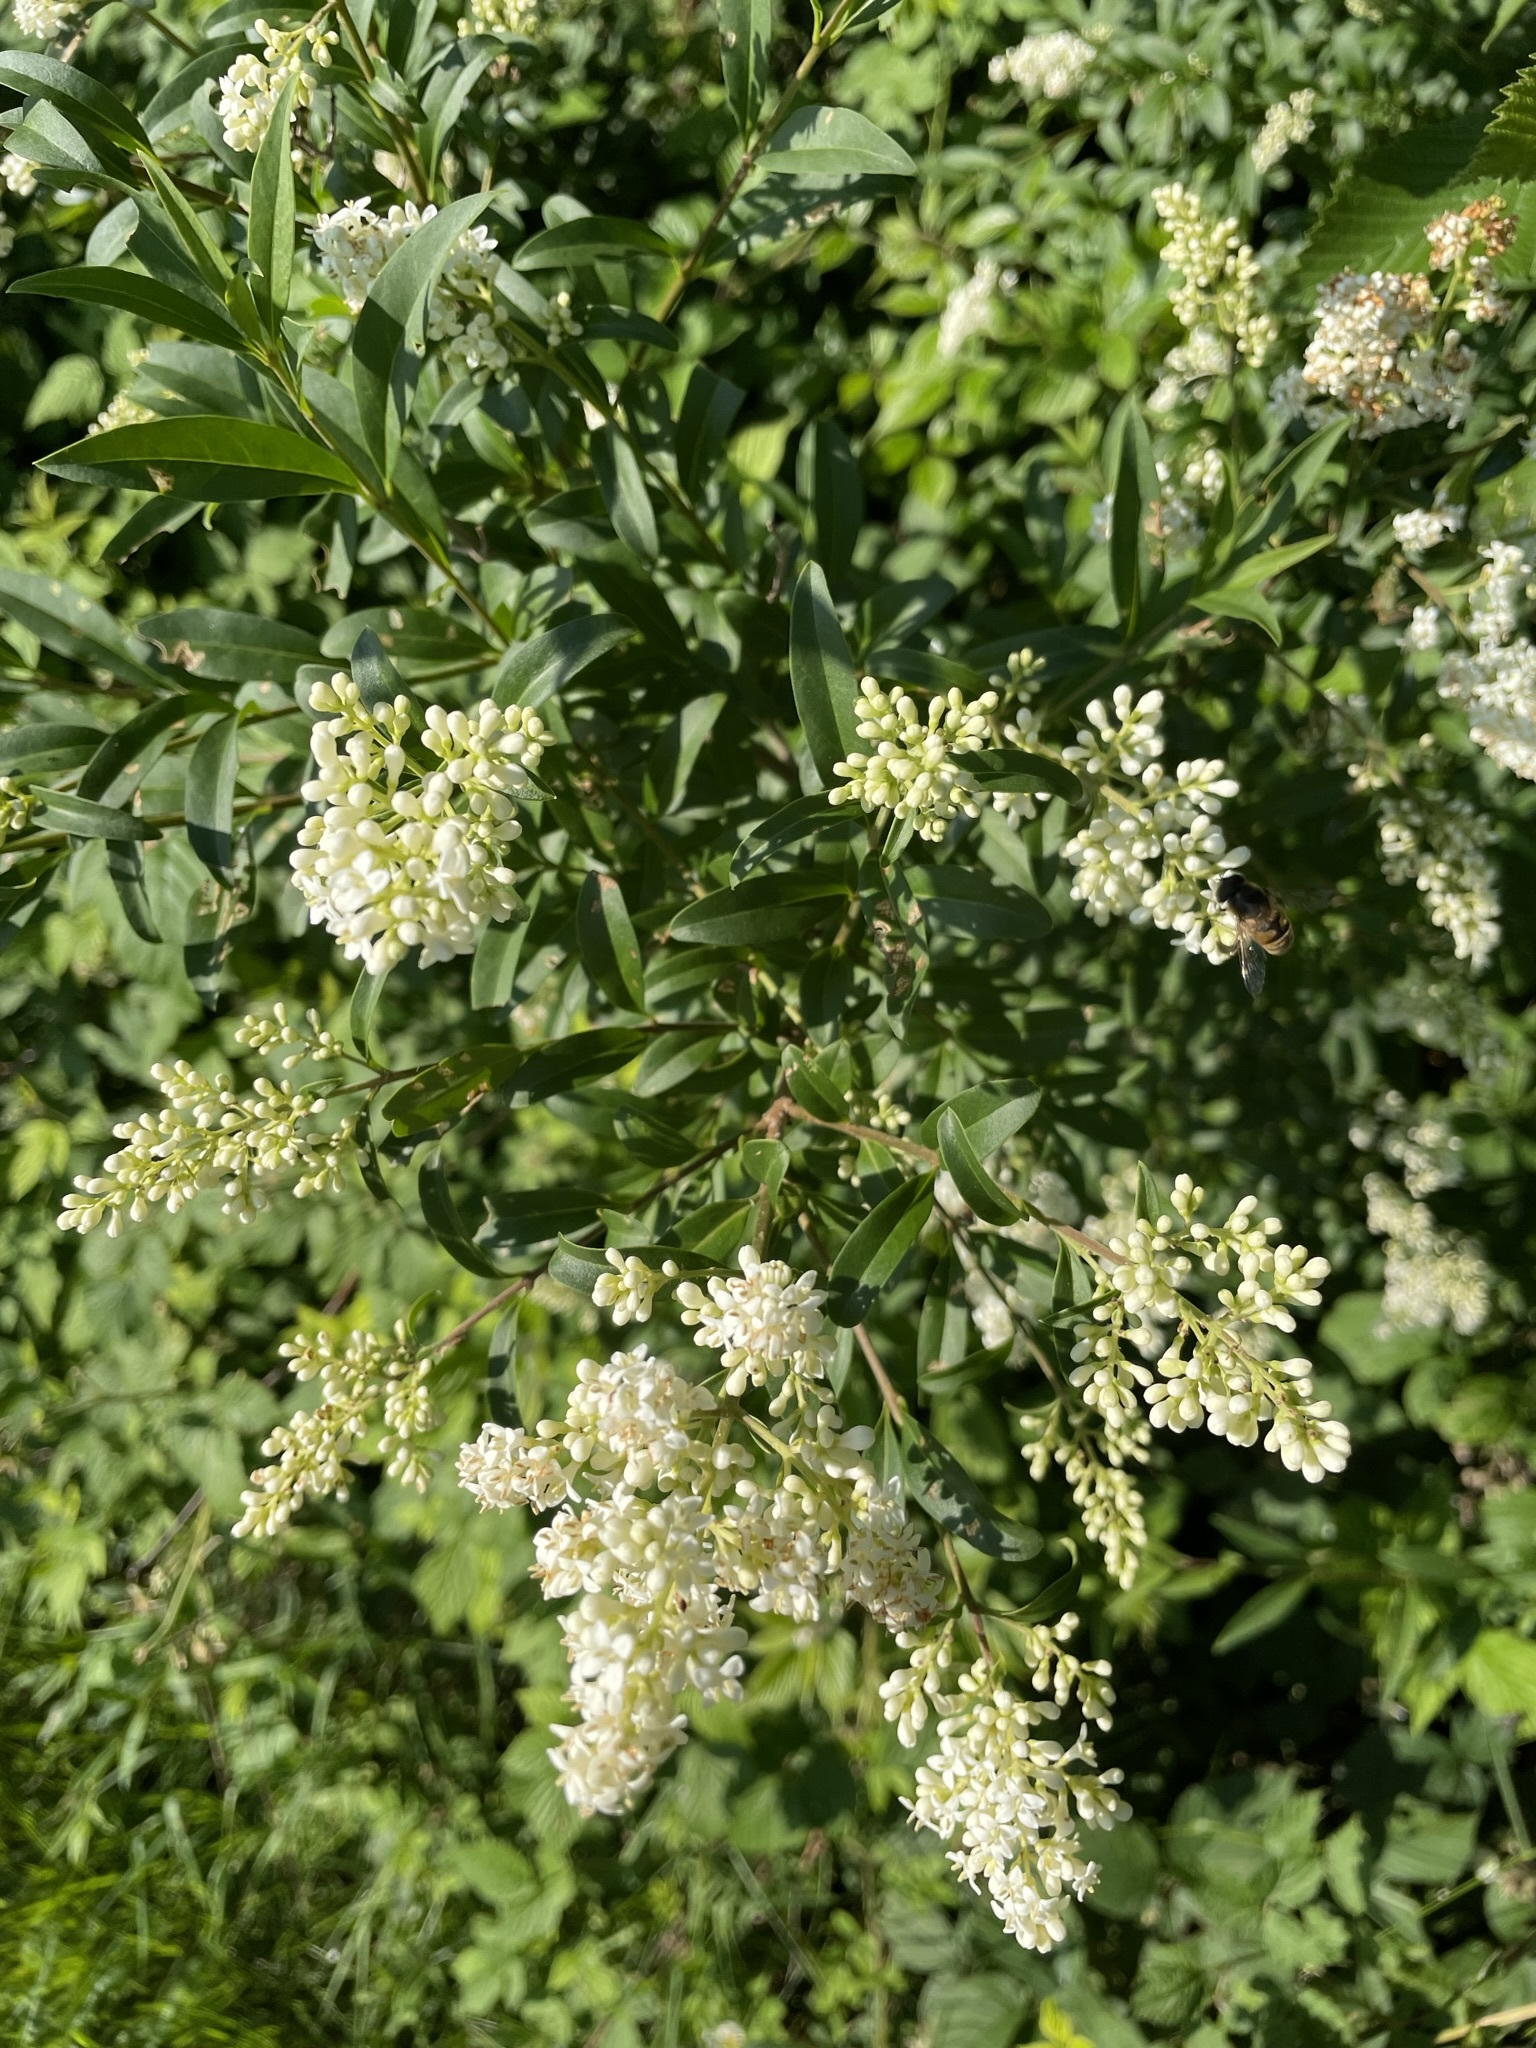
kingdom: Plantae
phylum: Tracheophyta
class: Magnoliopsida
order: Lamiales
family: Oleaceae
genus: Ligustrum
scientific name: Ligustrum vulgare
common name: Wild privet
